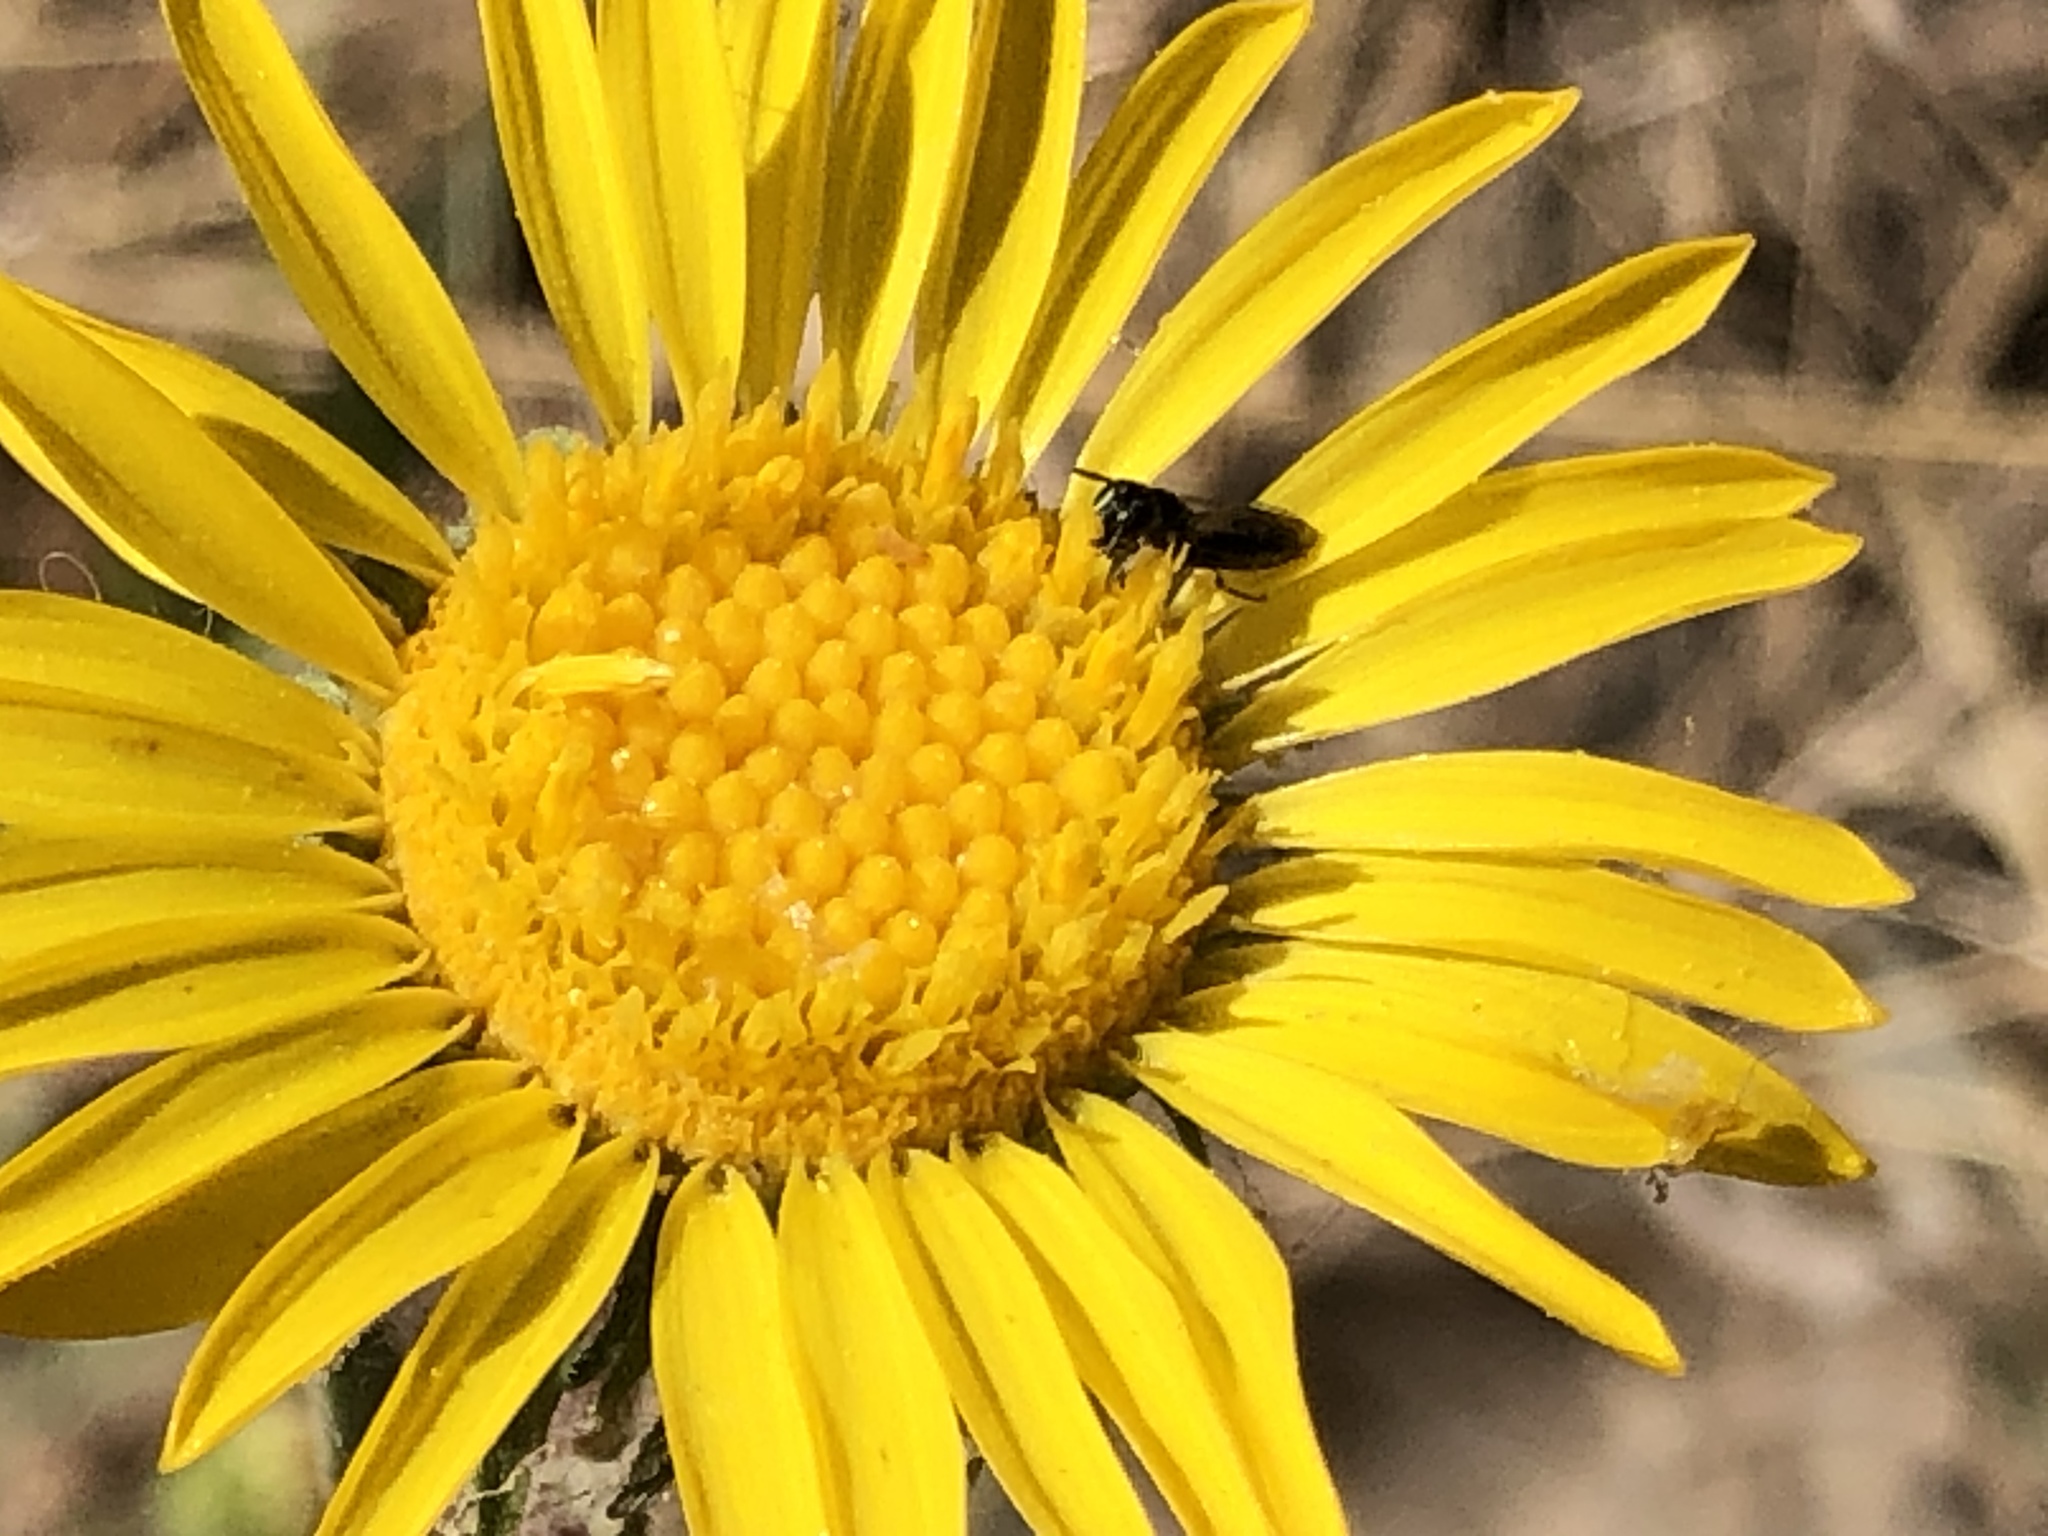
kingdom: Plantae
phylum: Tracheophyta
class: Magnoliopsida
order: Asterales
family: Asteraceae
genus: Grindelia
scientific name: Grindelia hirsutula
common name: Hairy gumweed
